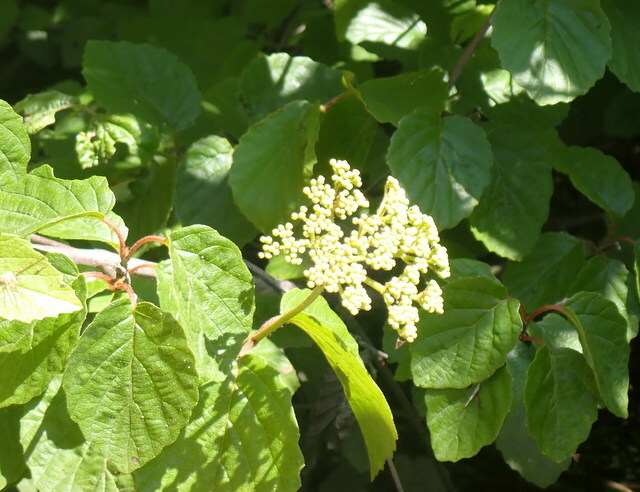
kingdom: Plantae
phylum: Tracheophyta
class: Magnoliopsida
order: Dipsacales
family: Viburnaceae
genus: Viburnum
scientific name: Viburnum scabrellum
